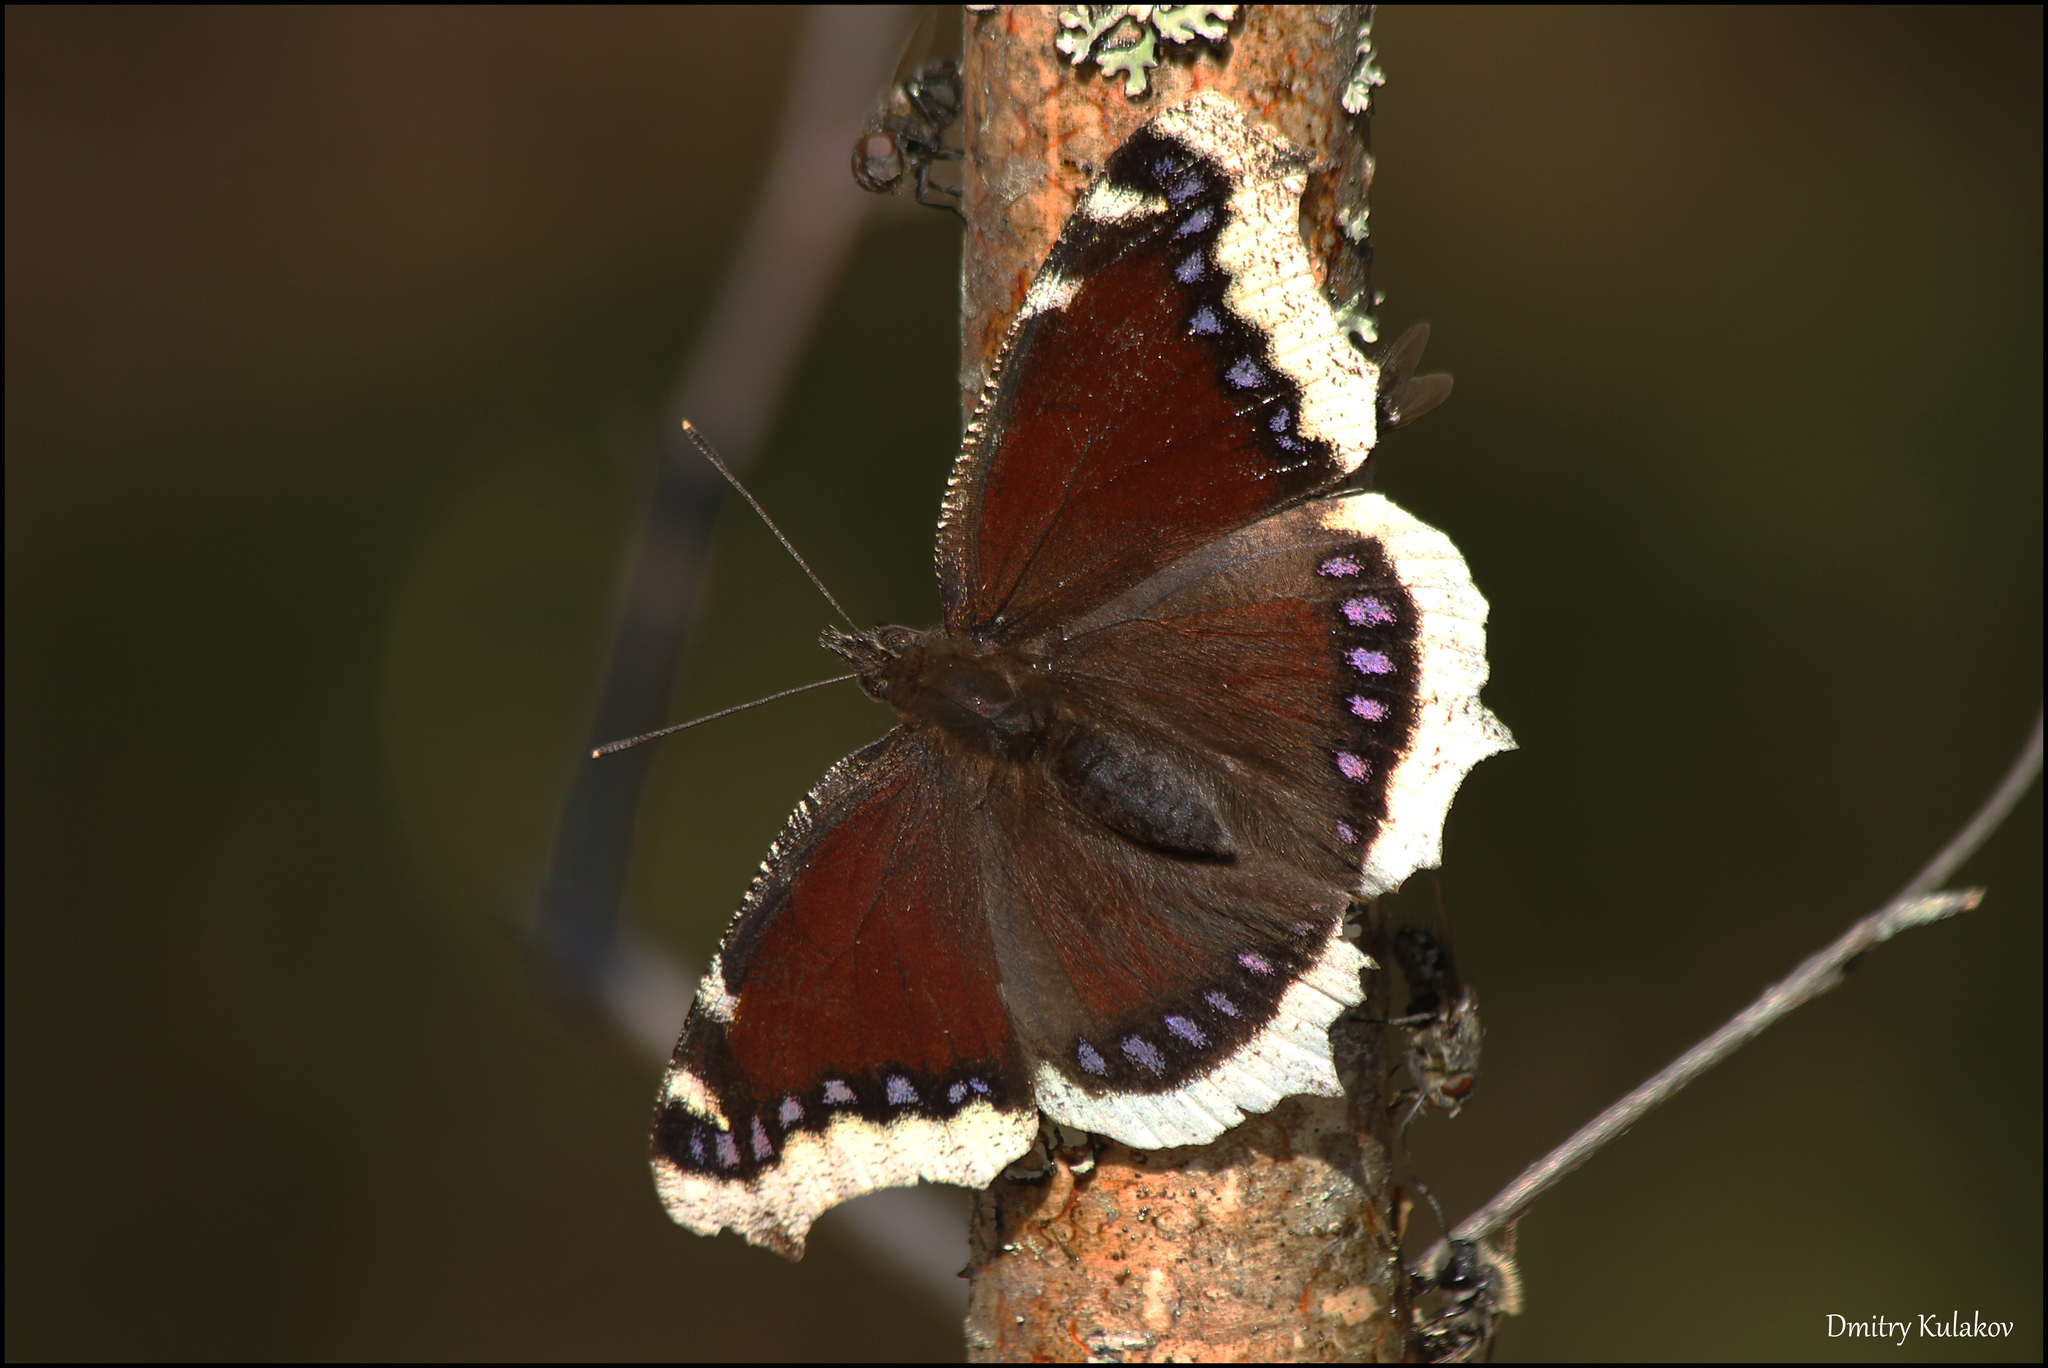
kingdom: Animalia
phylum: Arthropoda
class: Insecta
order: Lepidoptera
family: Nymphalidae
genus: Nymphalis
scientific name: Nymphalis antiopa
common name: Camberwell beauty
